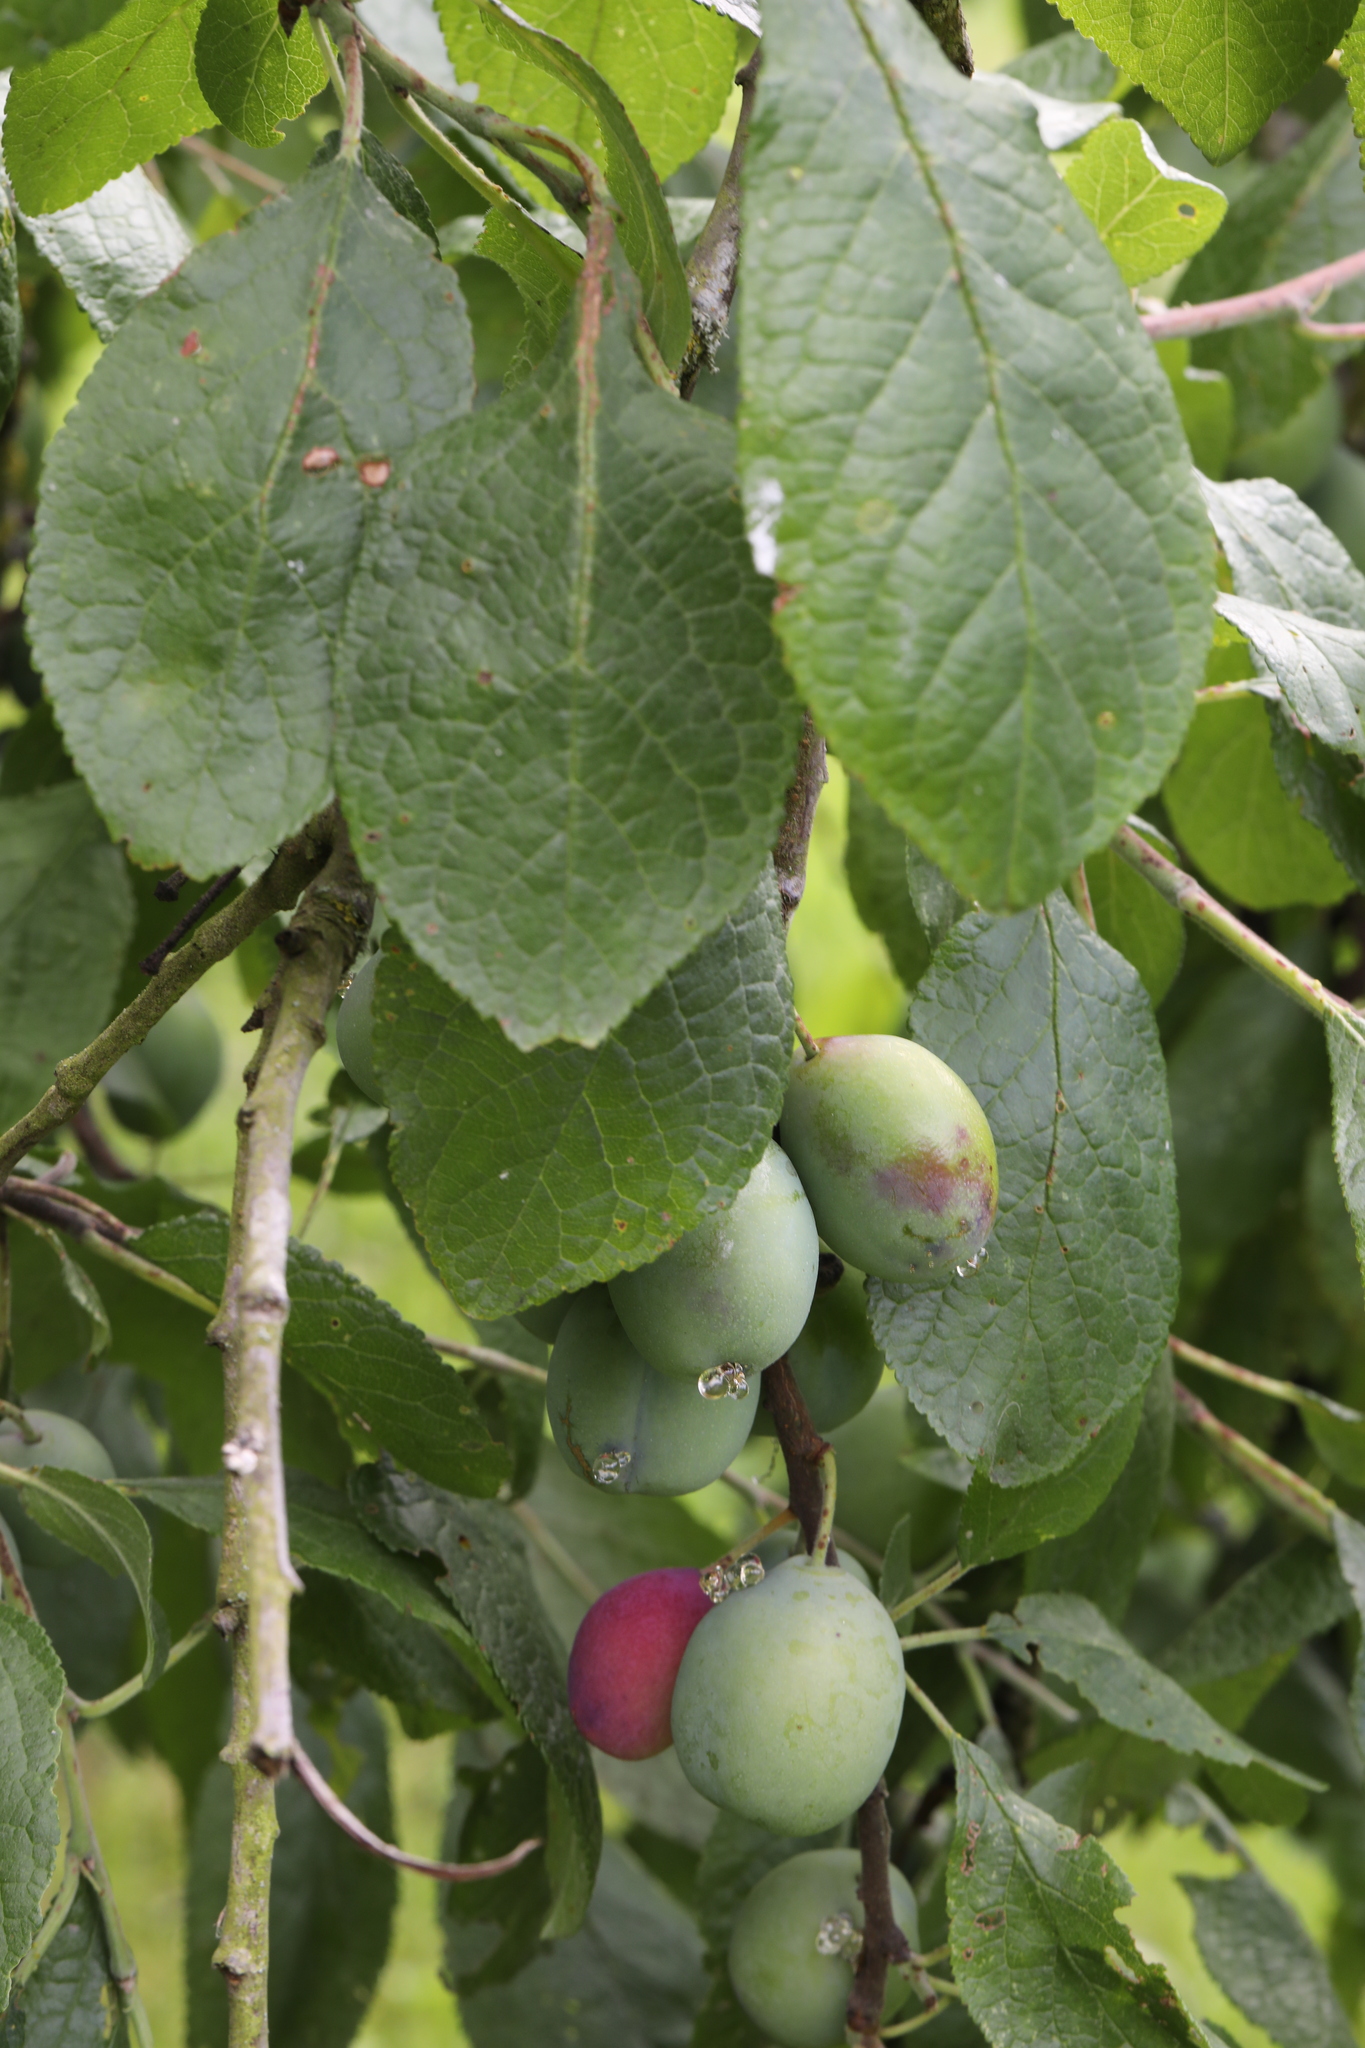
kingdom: Plantae
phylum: Tracheophyta
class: Magnoliopsida
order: Rosales
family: Rosaceae
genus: Prunus
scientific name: Prunus domestica
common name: Wild plum
